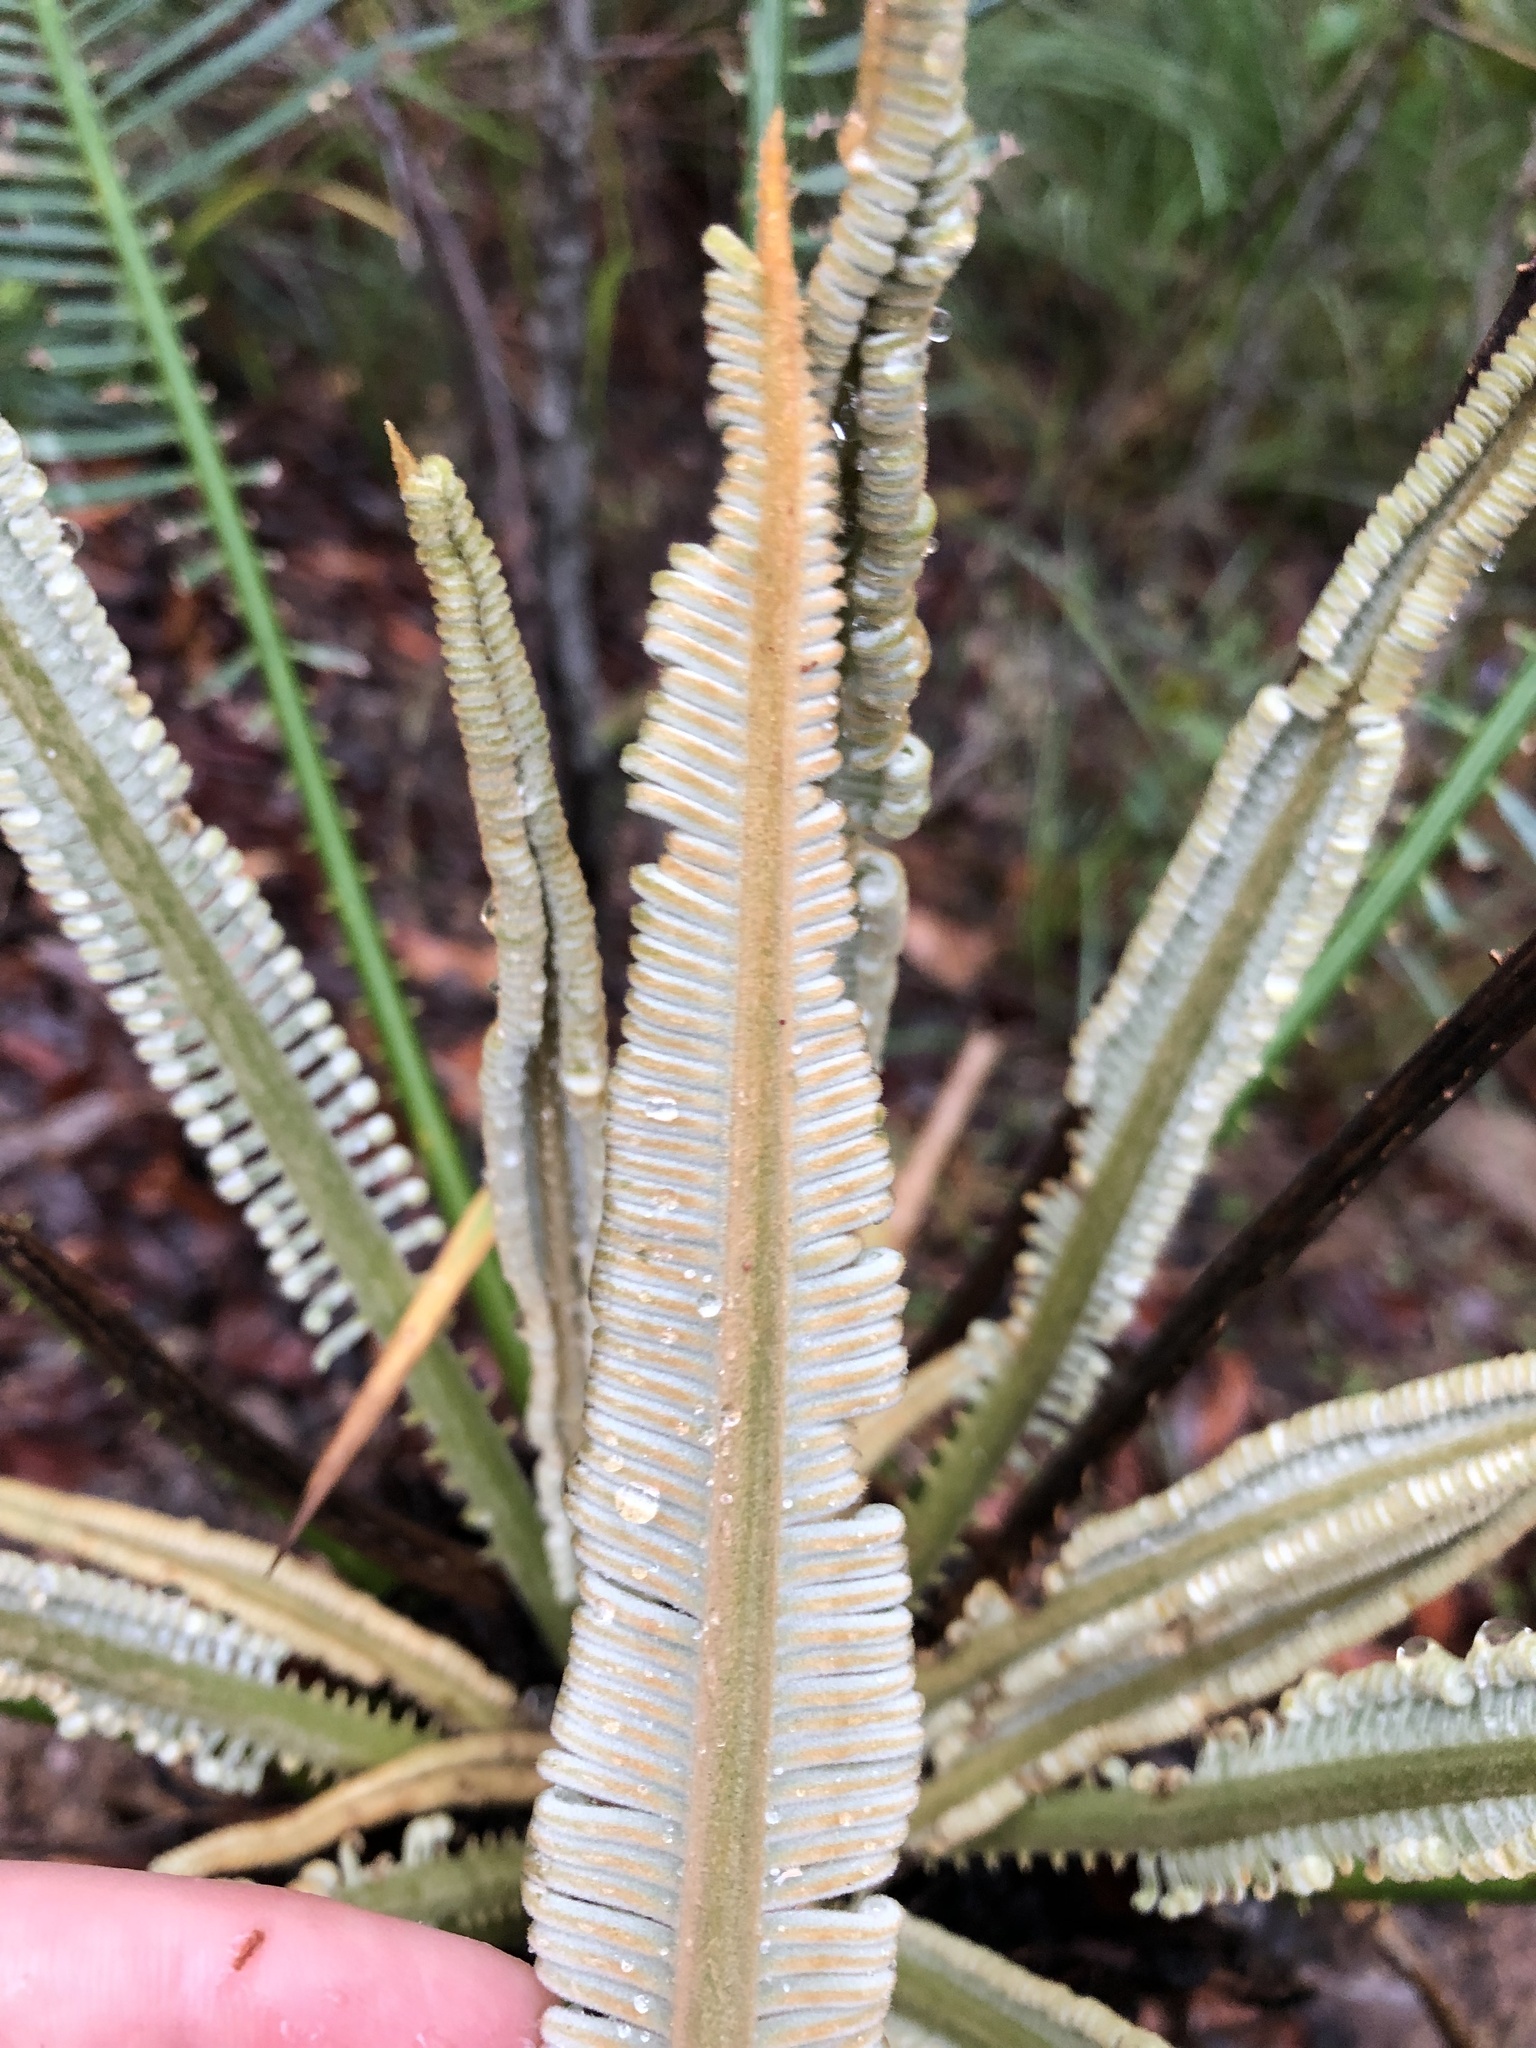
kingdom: Plantae
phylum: Tracheophyta
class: Cycadopsida
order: Cycadales
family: Cycadaceae
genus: Cycas
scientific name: Cycas media
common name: Queensland cycas
